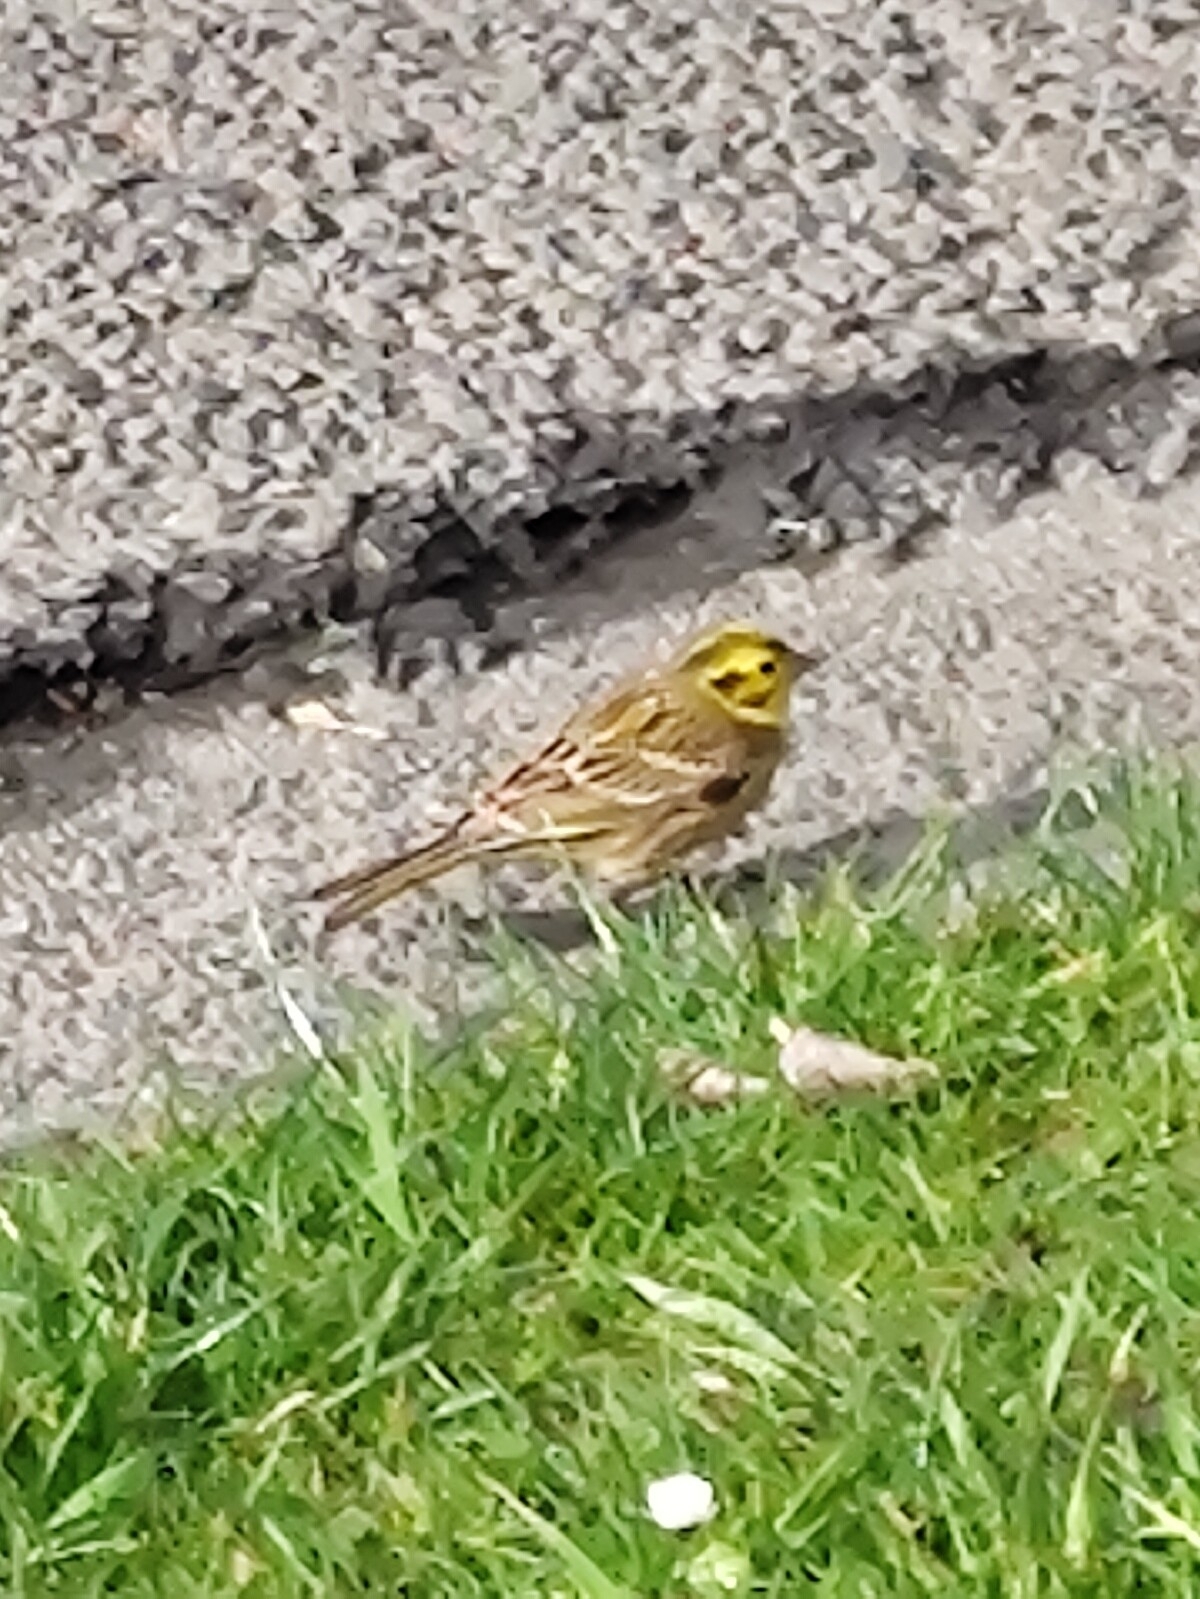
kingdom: Animalia
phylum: Chordata
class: Aves
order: Passeriformes
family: Emberizidae
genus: Emberiza
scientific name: Emberiza citrinella
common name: Yellowhammer
